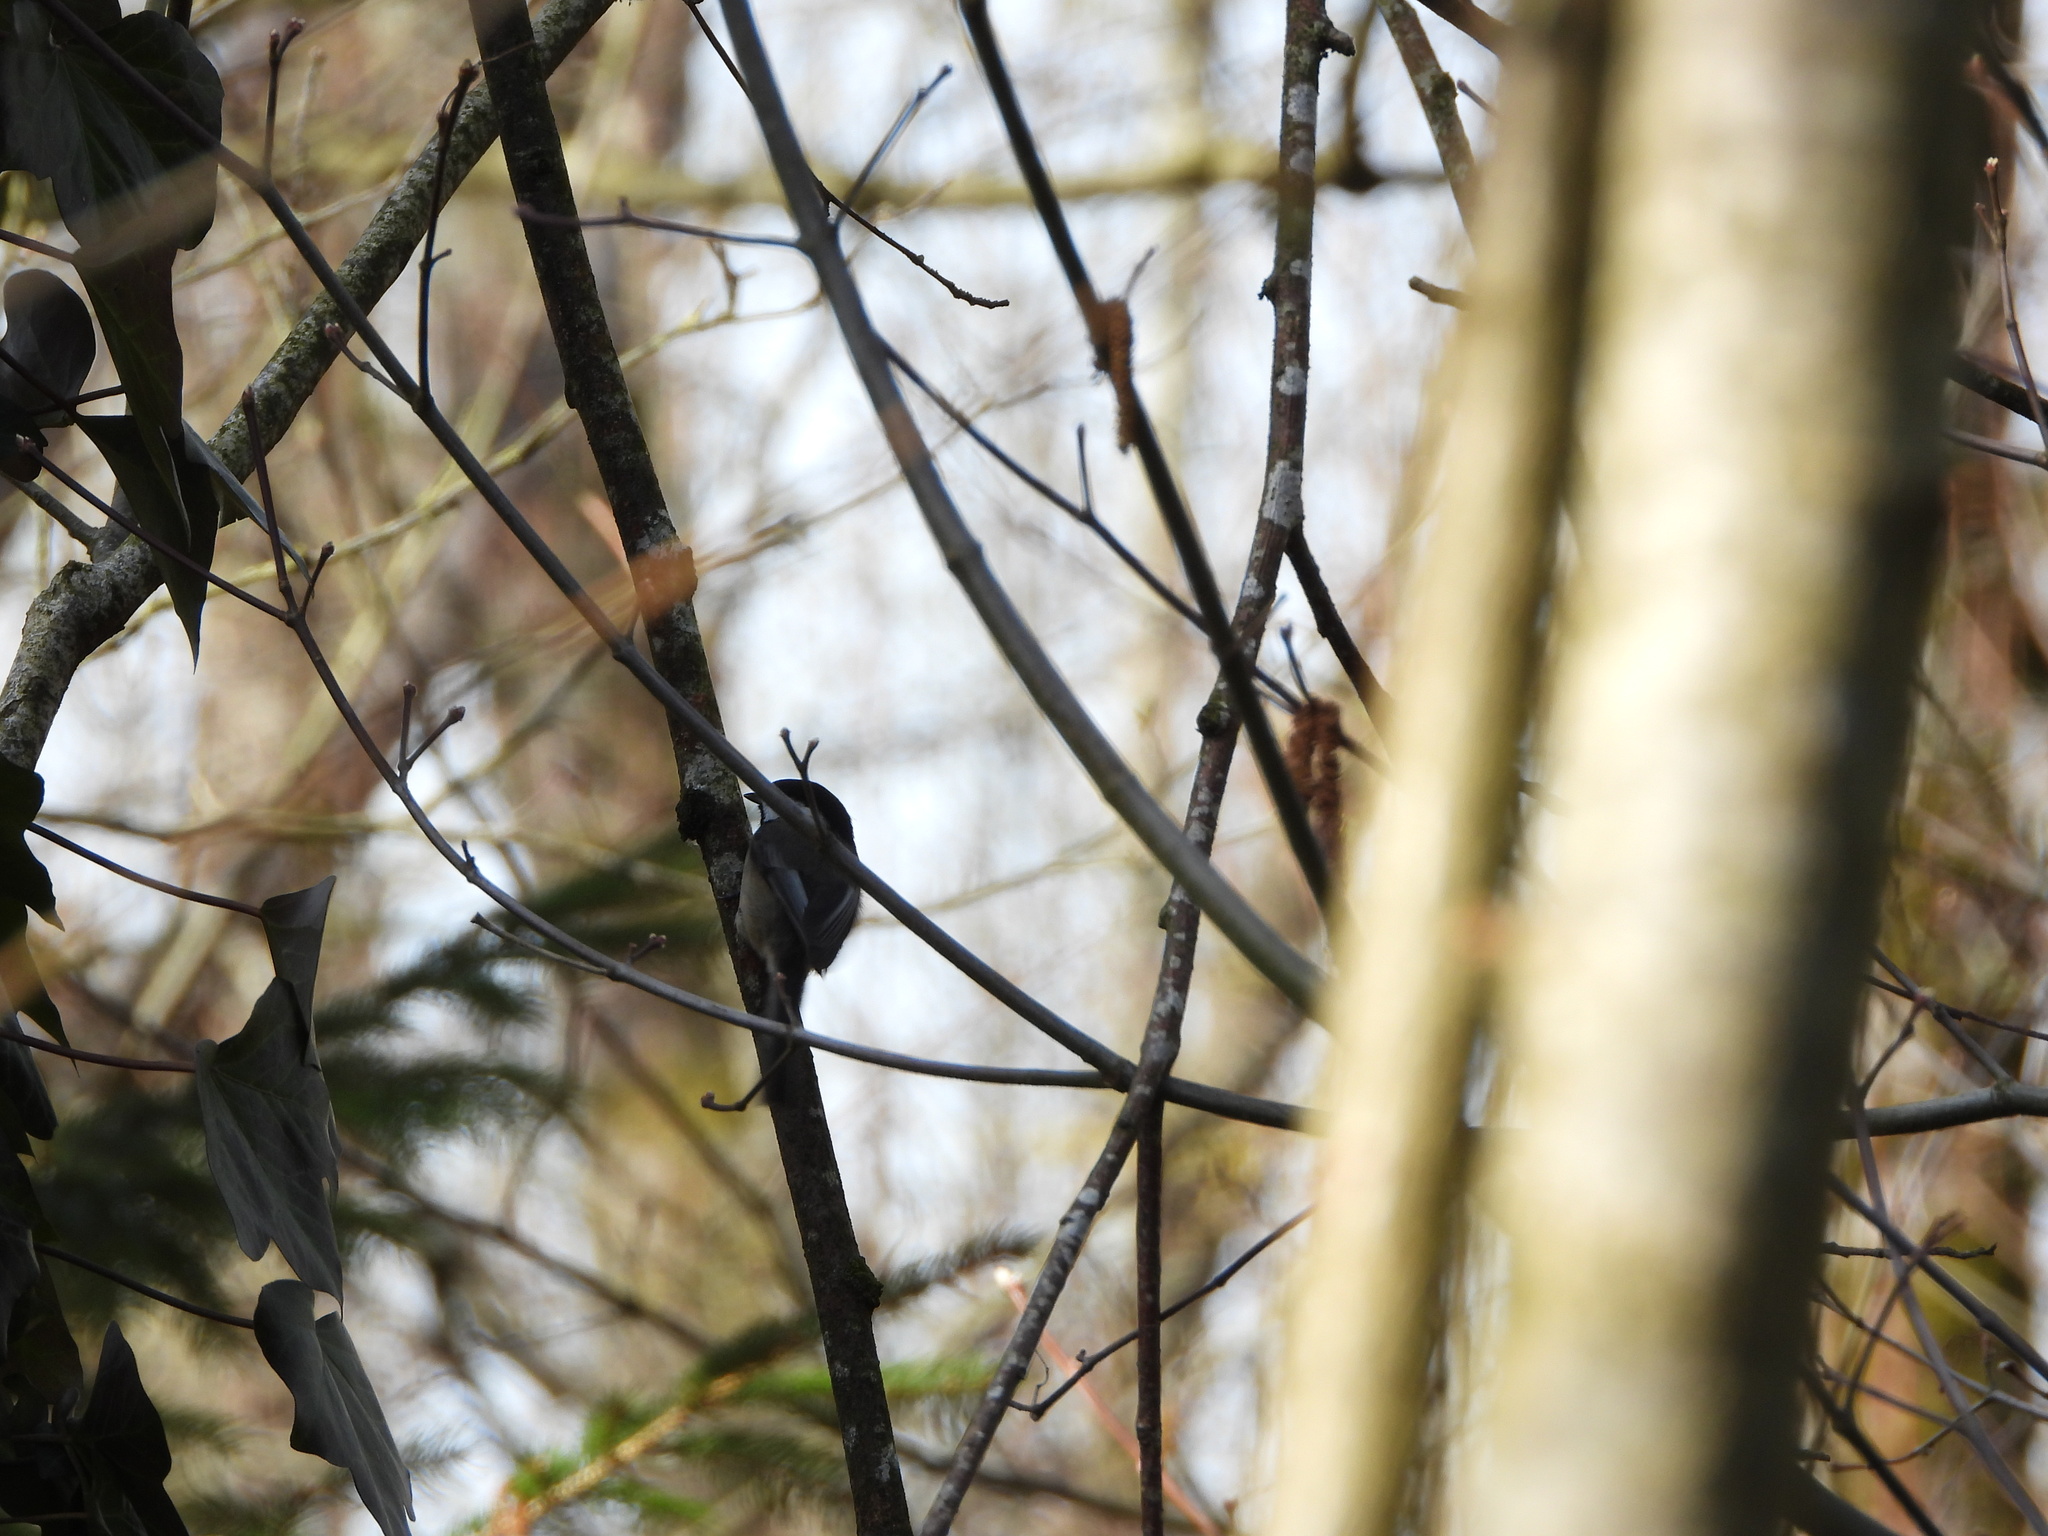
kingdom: Animalia
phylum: Chordata
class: Aves
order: Passeriformes
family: Paridae
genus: Poecile
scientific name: Poecile atricapillus
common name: Black-capped chickadee
